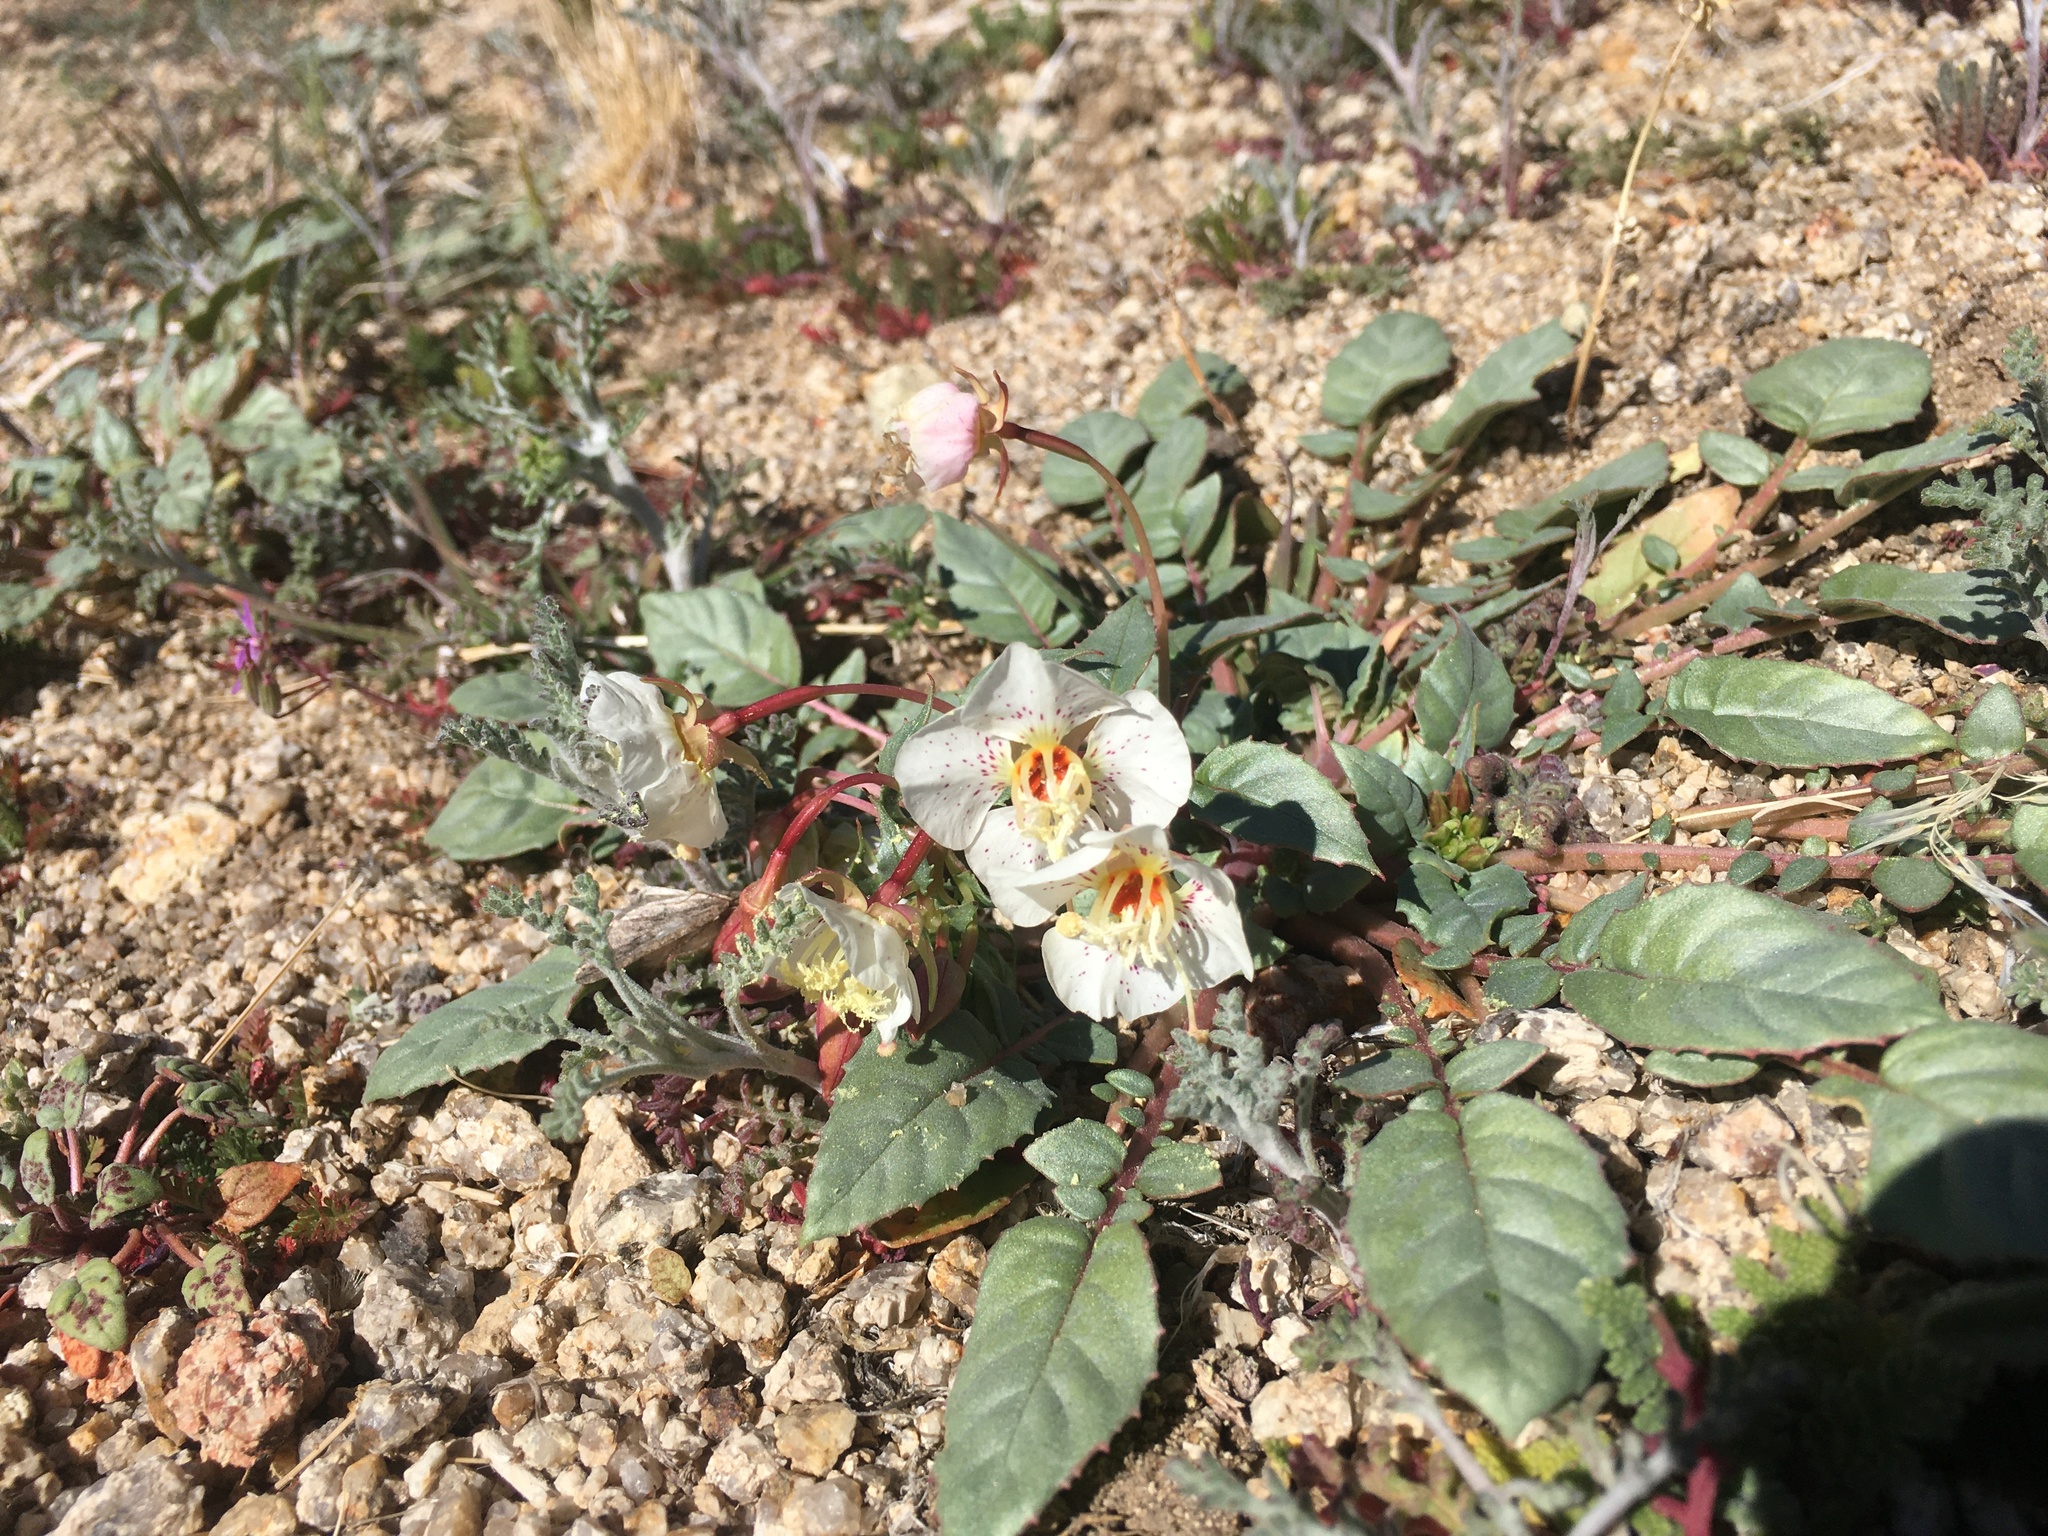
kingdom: Plantae
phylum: Tracheophyta
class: Magnoliopsida
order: Myrtales
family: Onagraceae
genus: Chylismia
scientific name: Chylismia claviformis
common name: Browneyes
